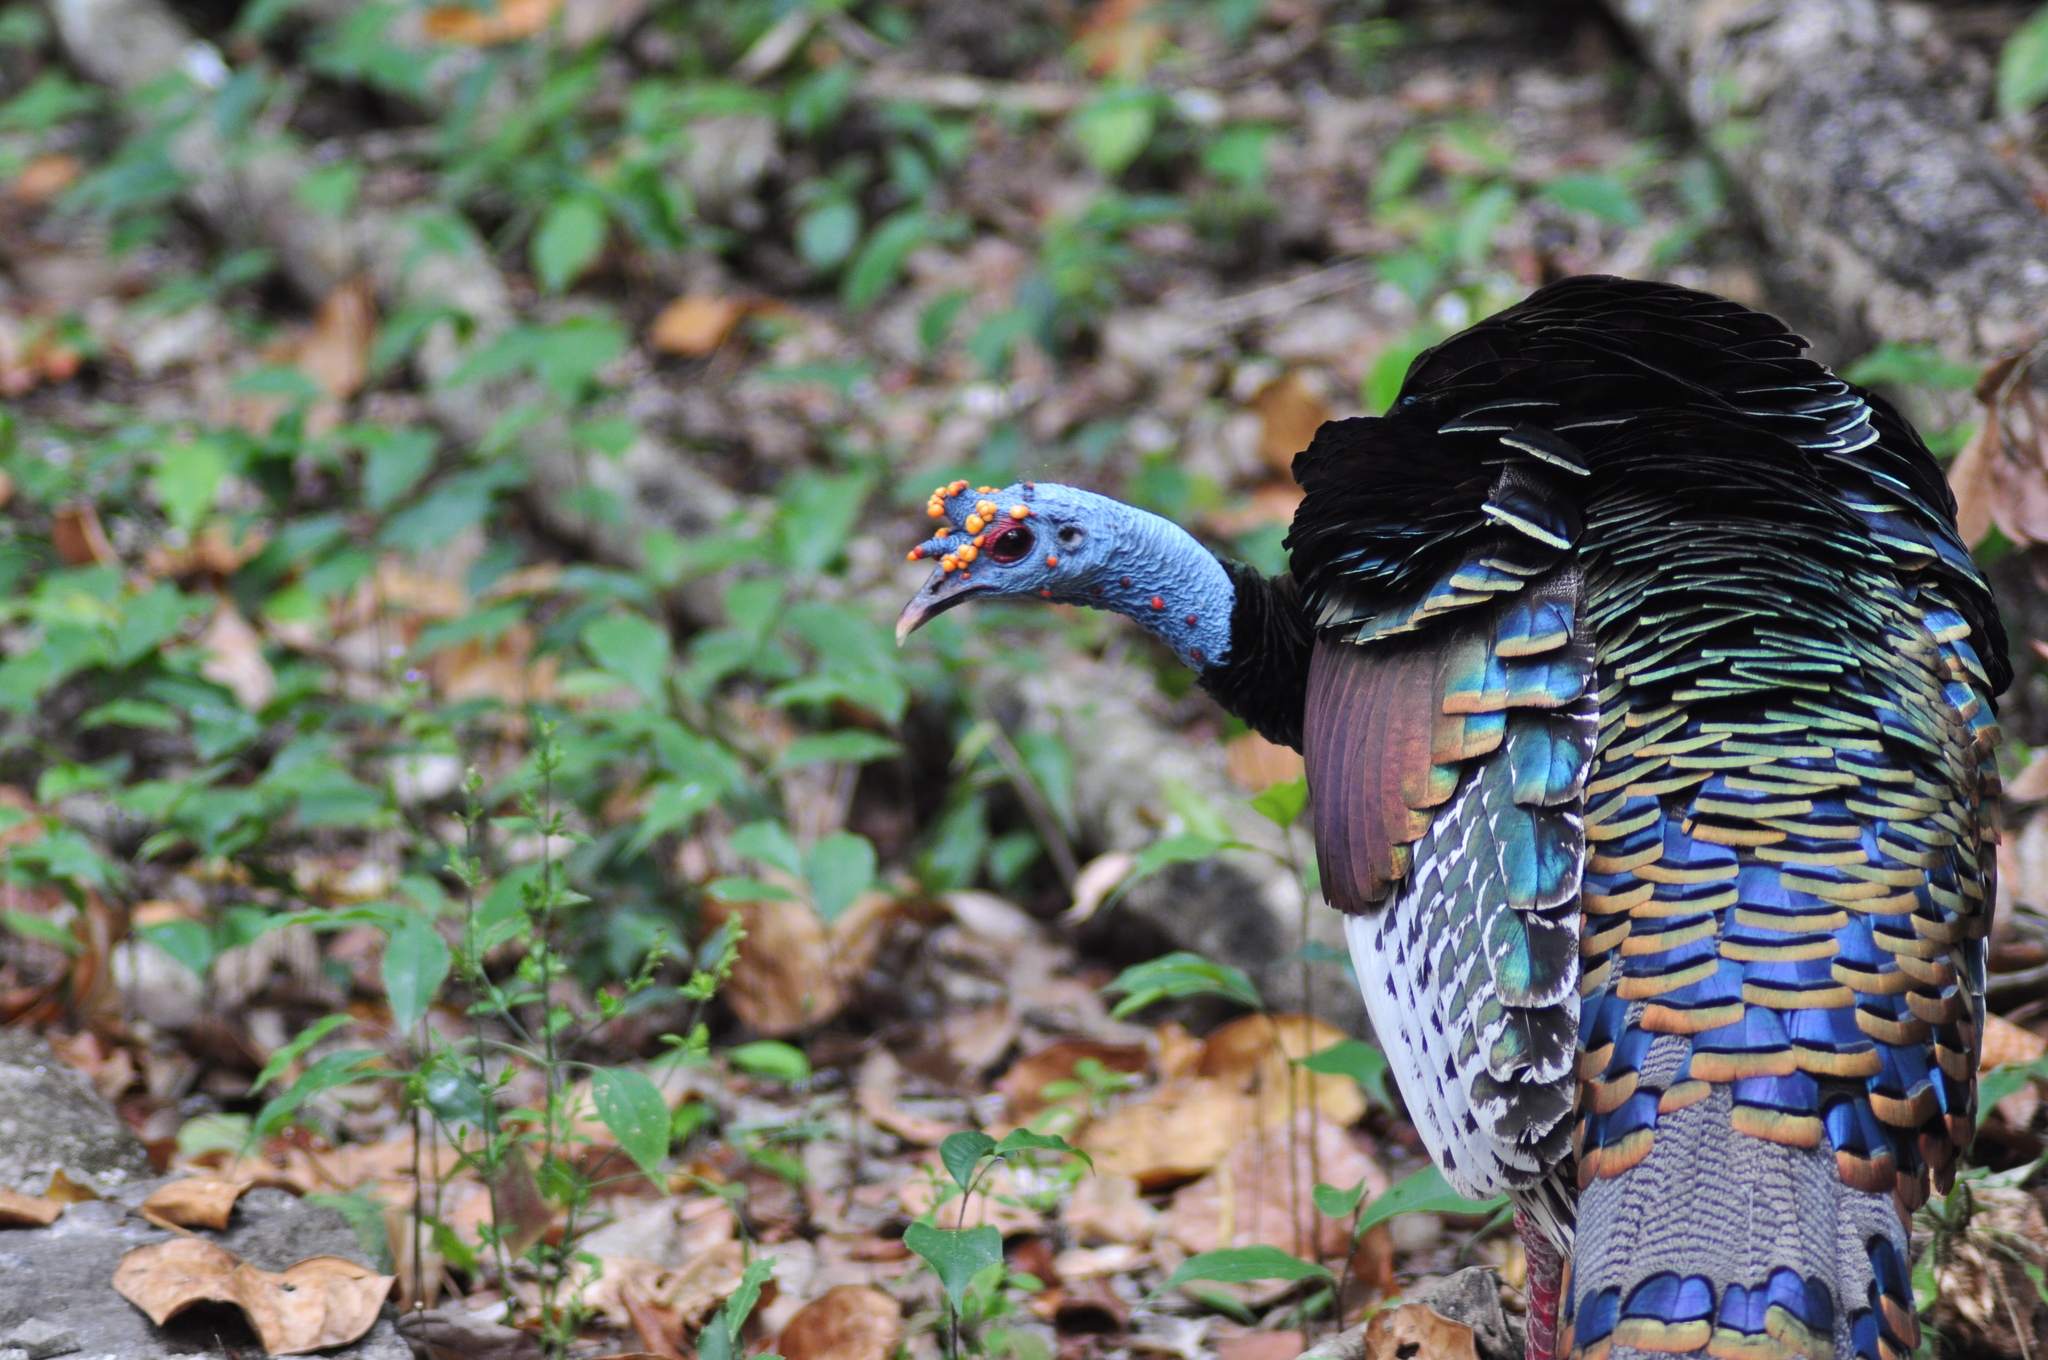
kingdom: Animalia
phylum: Chordata
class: Aves
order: Galliformes
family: Phasianidae
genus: Meleagris
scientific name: Meleagris ocellata
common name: Ocellated turkey
